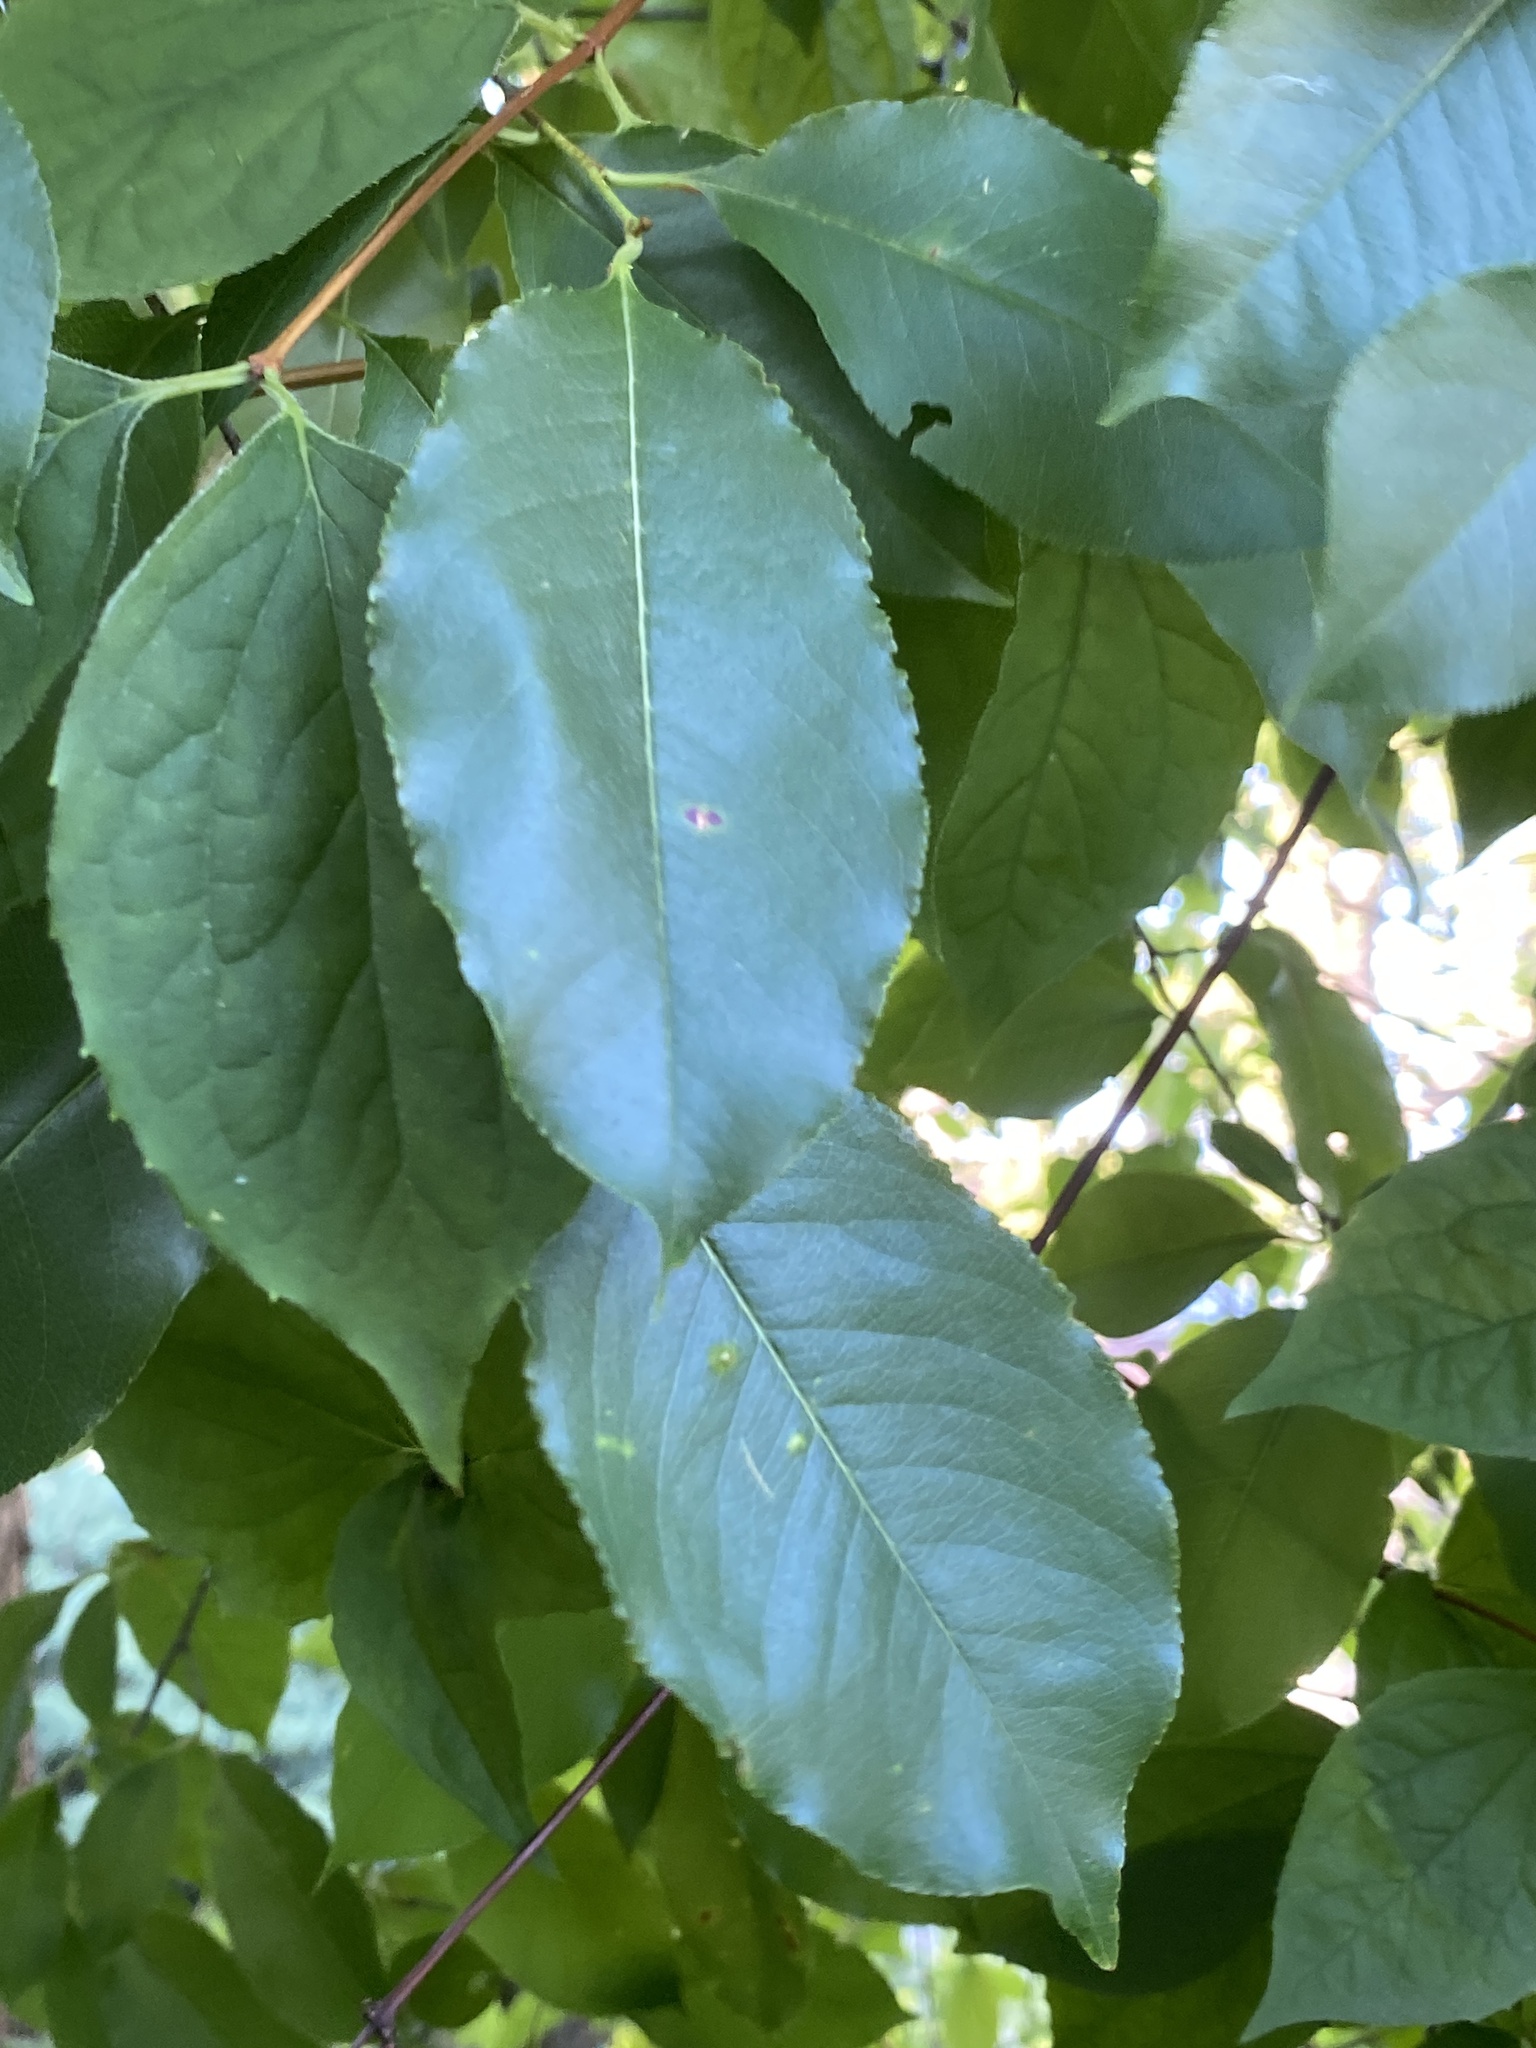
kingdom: Plantae
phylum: Tracheophyta
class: Magnoliopsida
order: Rosales
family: Rosaceae
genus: Prunus
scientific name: Prunus serotina
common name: Black cherry
